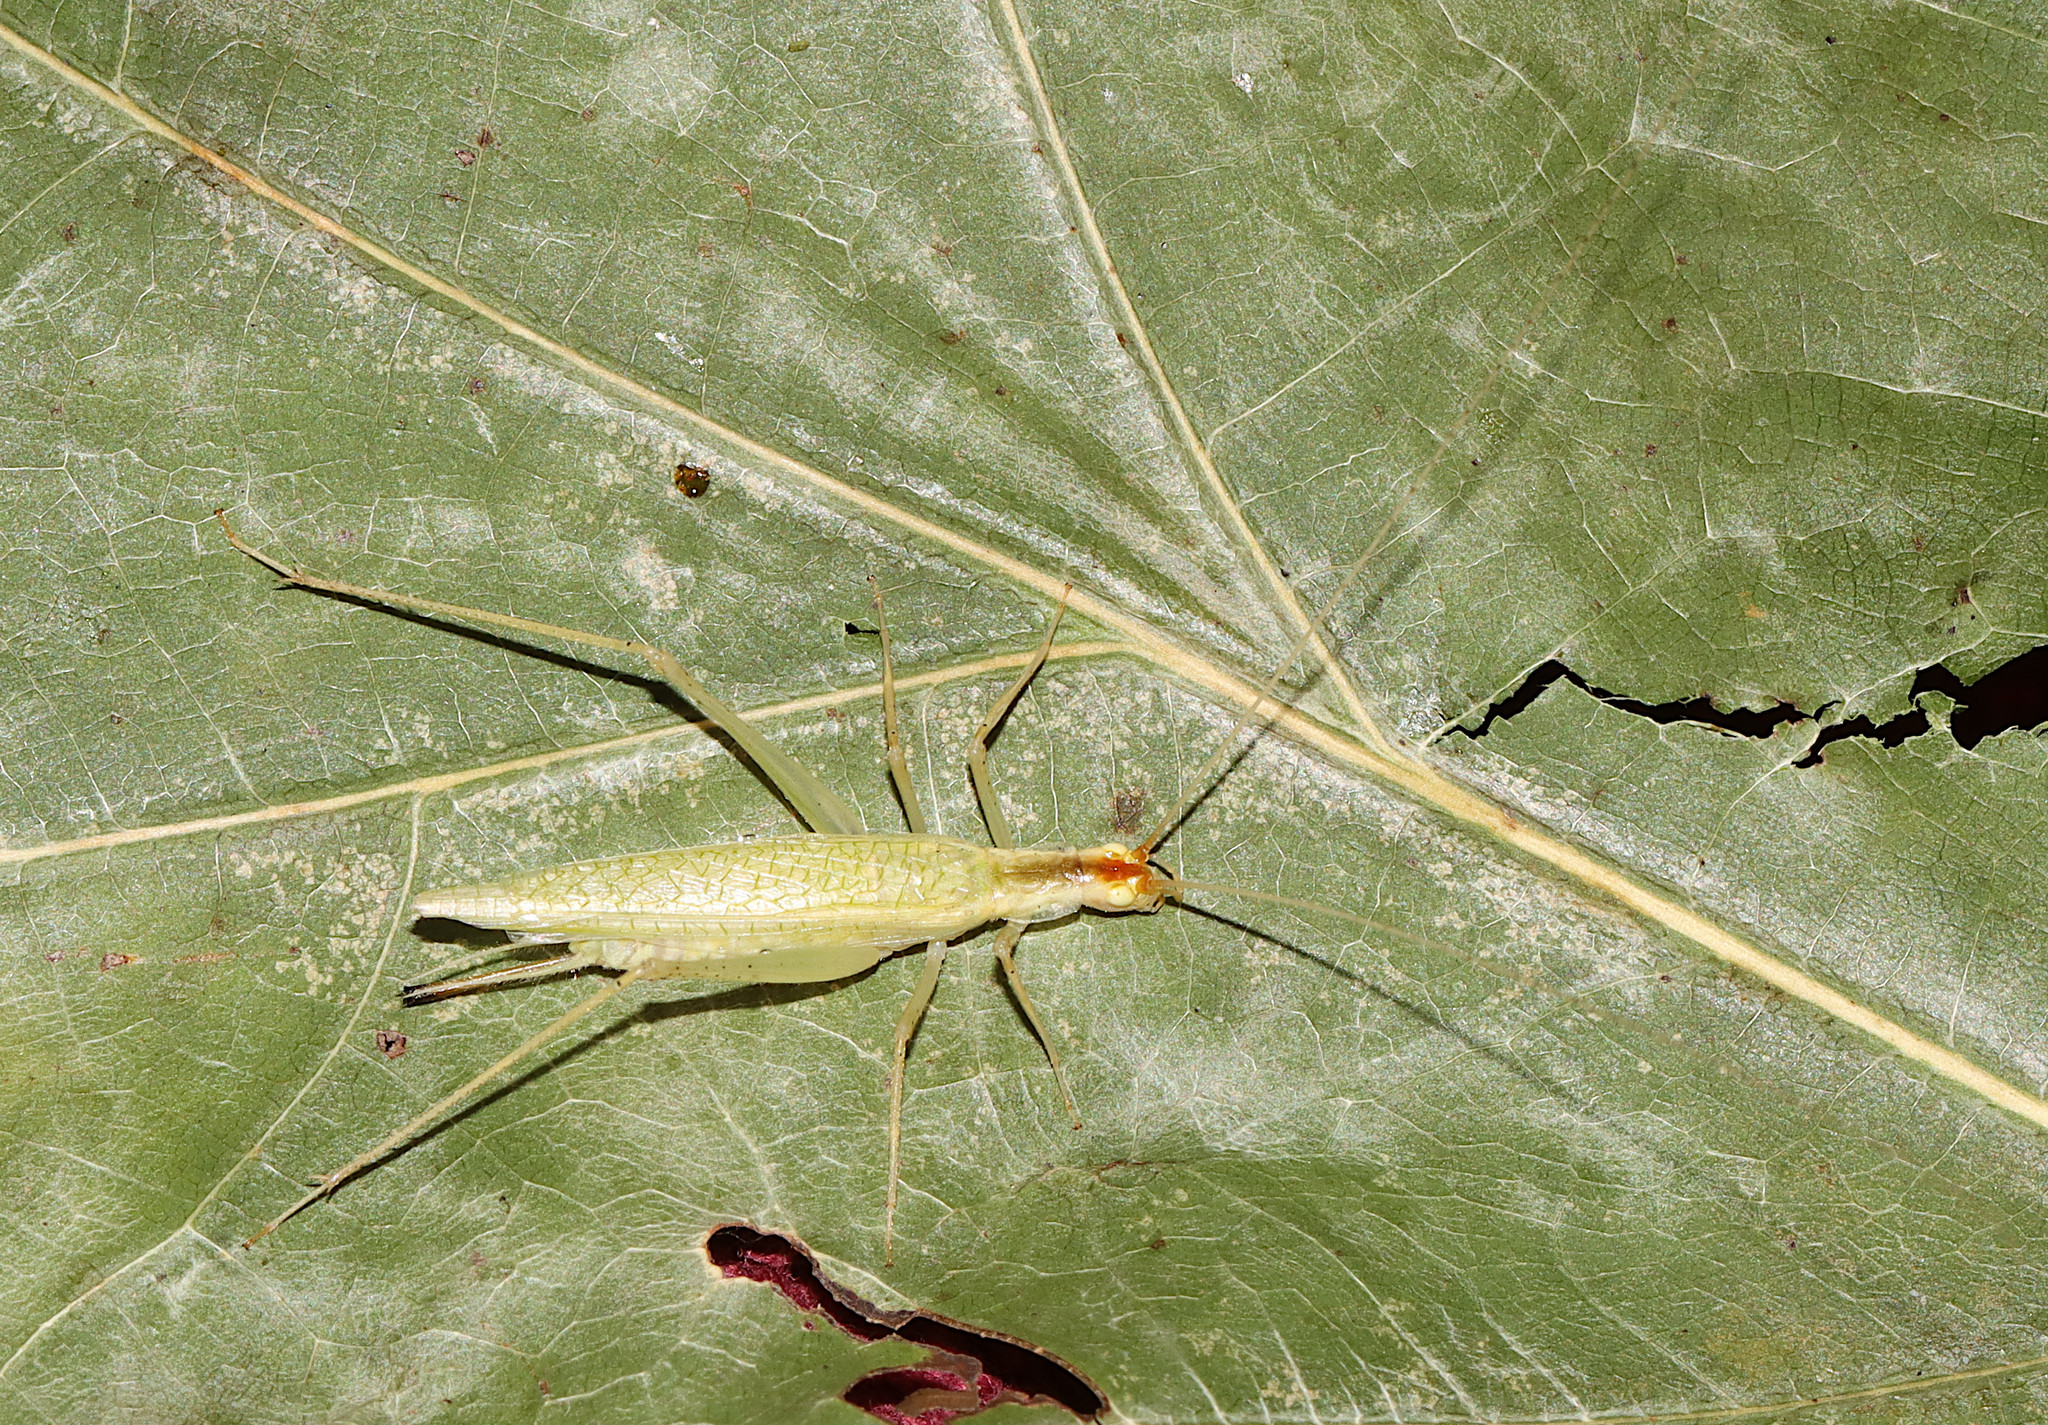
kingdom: Animalia
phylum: Arthropoda
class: Insecta
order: Orthoptera
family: Gryllidae
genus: Oecanthus
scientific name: Oecanthus niveus
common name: Narrow-winged tree cricket
